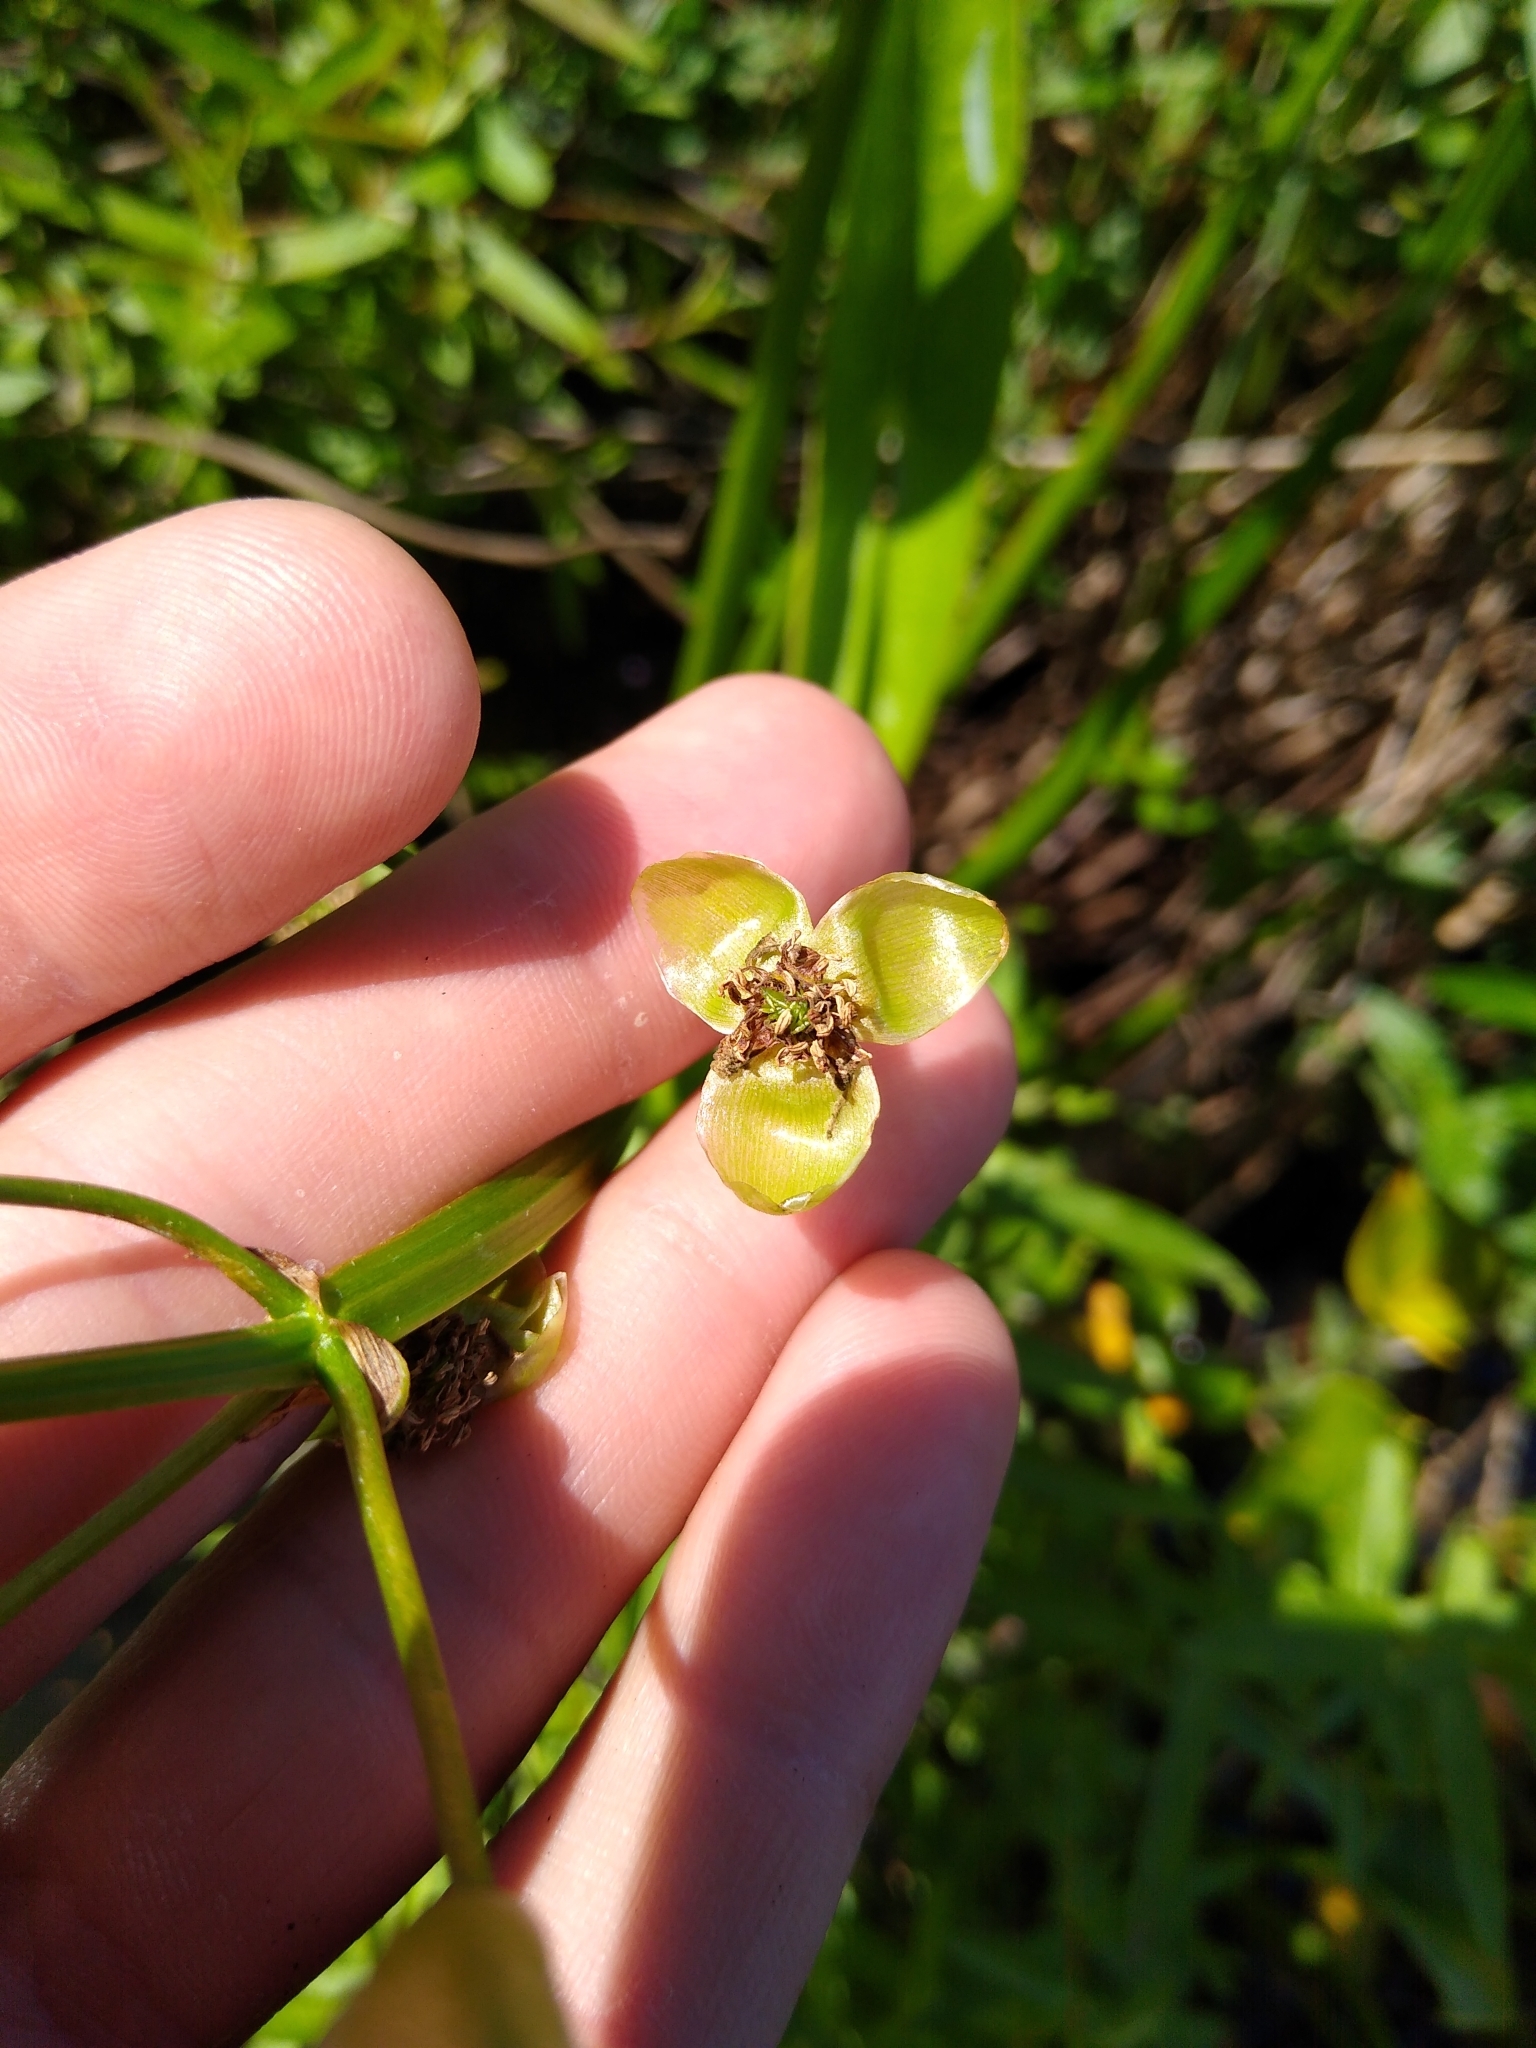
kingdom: Plantae
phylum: Tracheophyta
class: Liliopsida
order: Alismatales
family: Alismataceae
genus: Sagittaria
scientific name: Sagittaria latifolia
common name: Duck-potato
